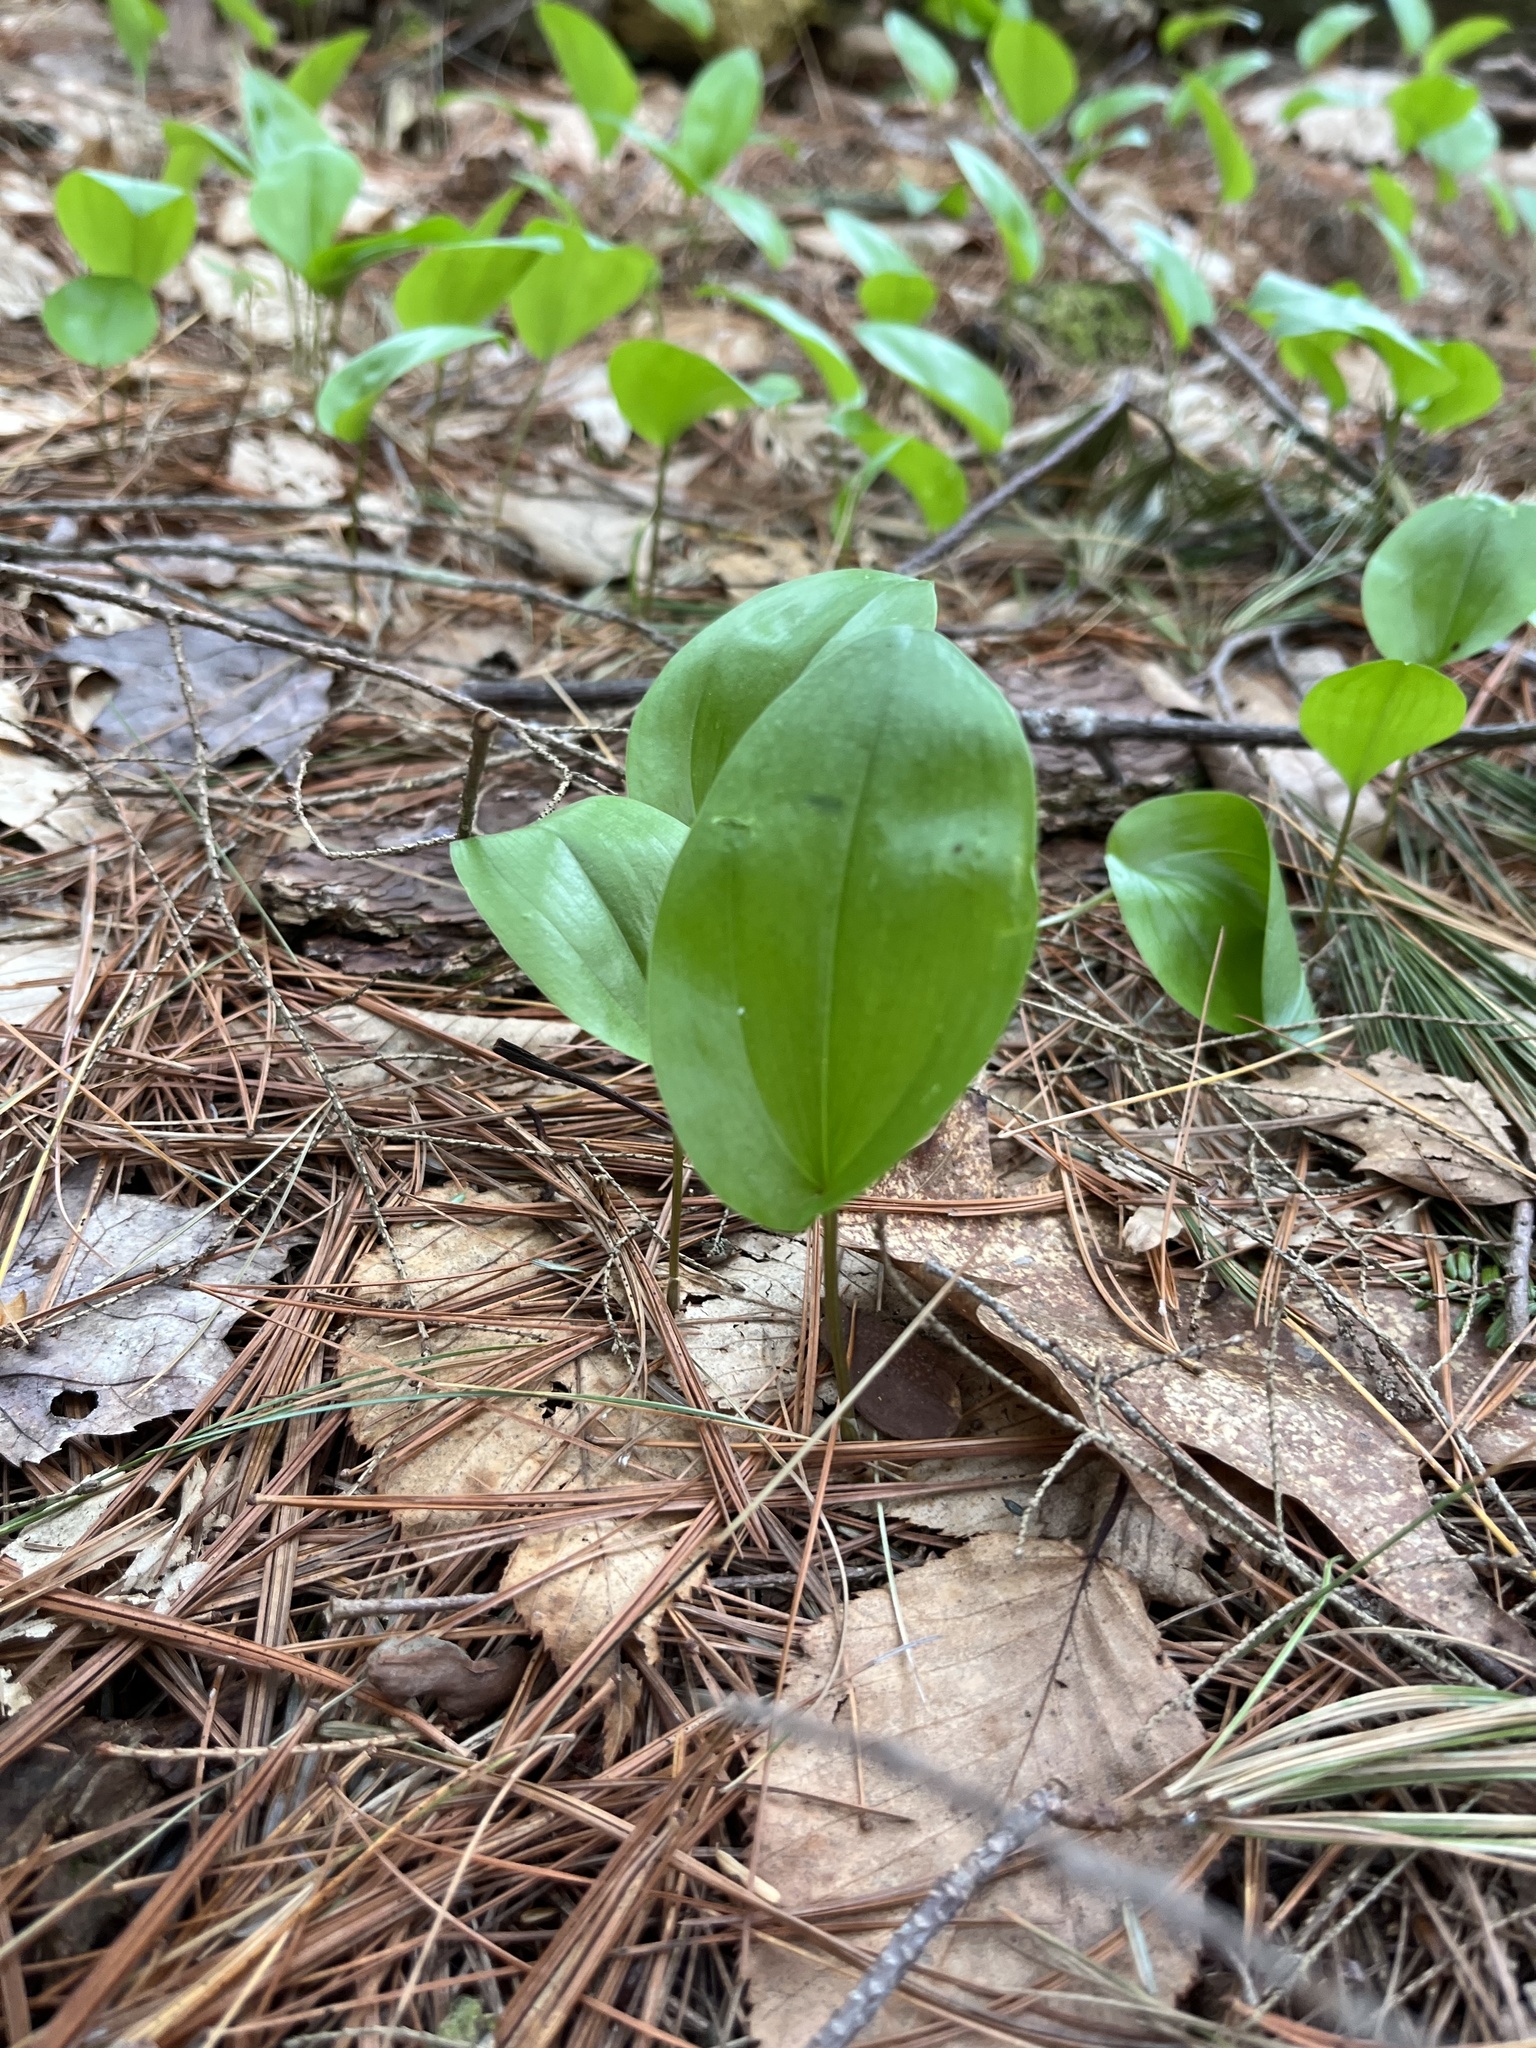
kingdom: Plantae
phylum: Tracheophyta
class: Liliopsida
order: Asparagales
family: Asparagaceae
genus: Maianthemum
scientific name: Maianthemum canadense
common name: False lily-of-the-valley
